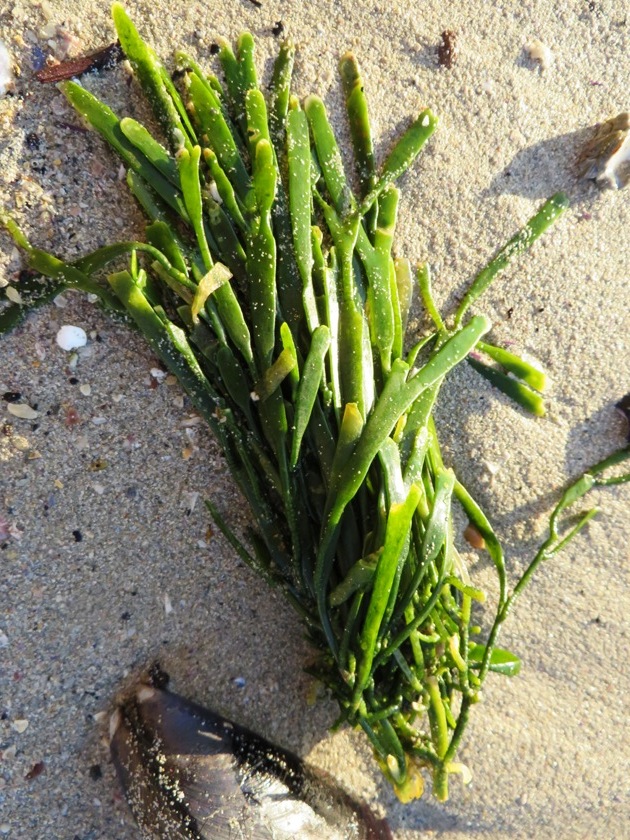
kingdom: Plantae
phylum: Chlorophyta
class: Ulvophyceae
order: Bryopsidales
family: Caulerpaceae
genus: Caulerpa
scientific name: Caulerpa filiformis
